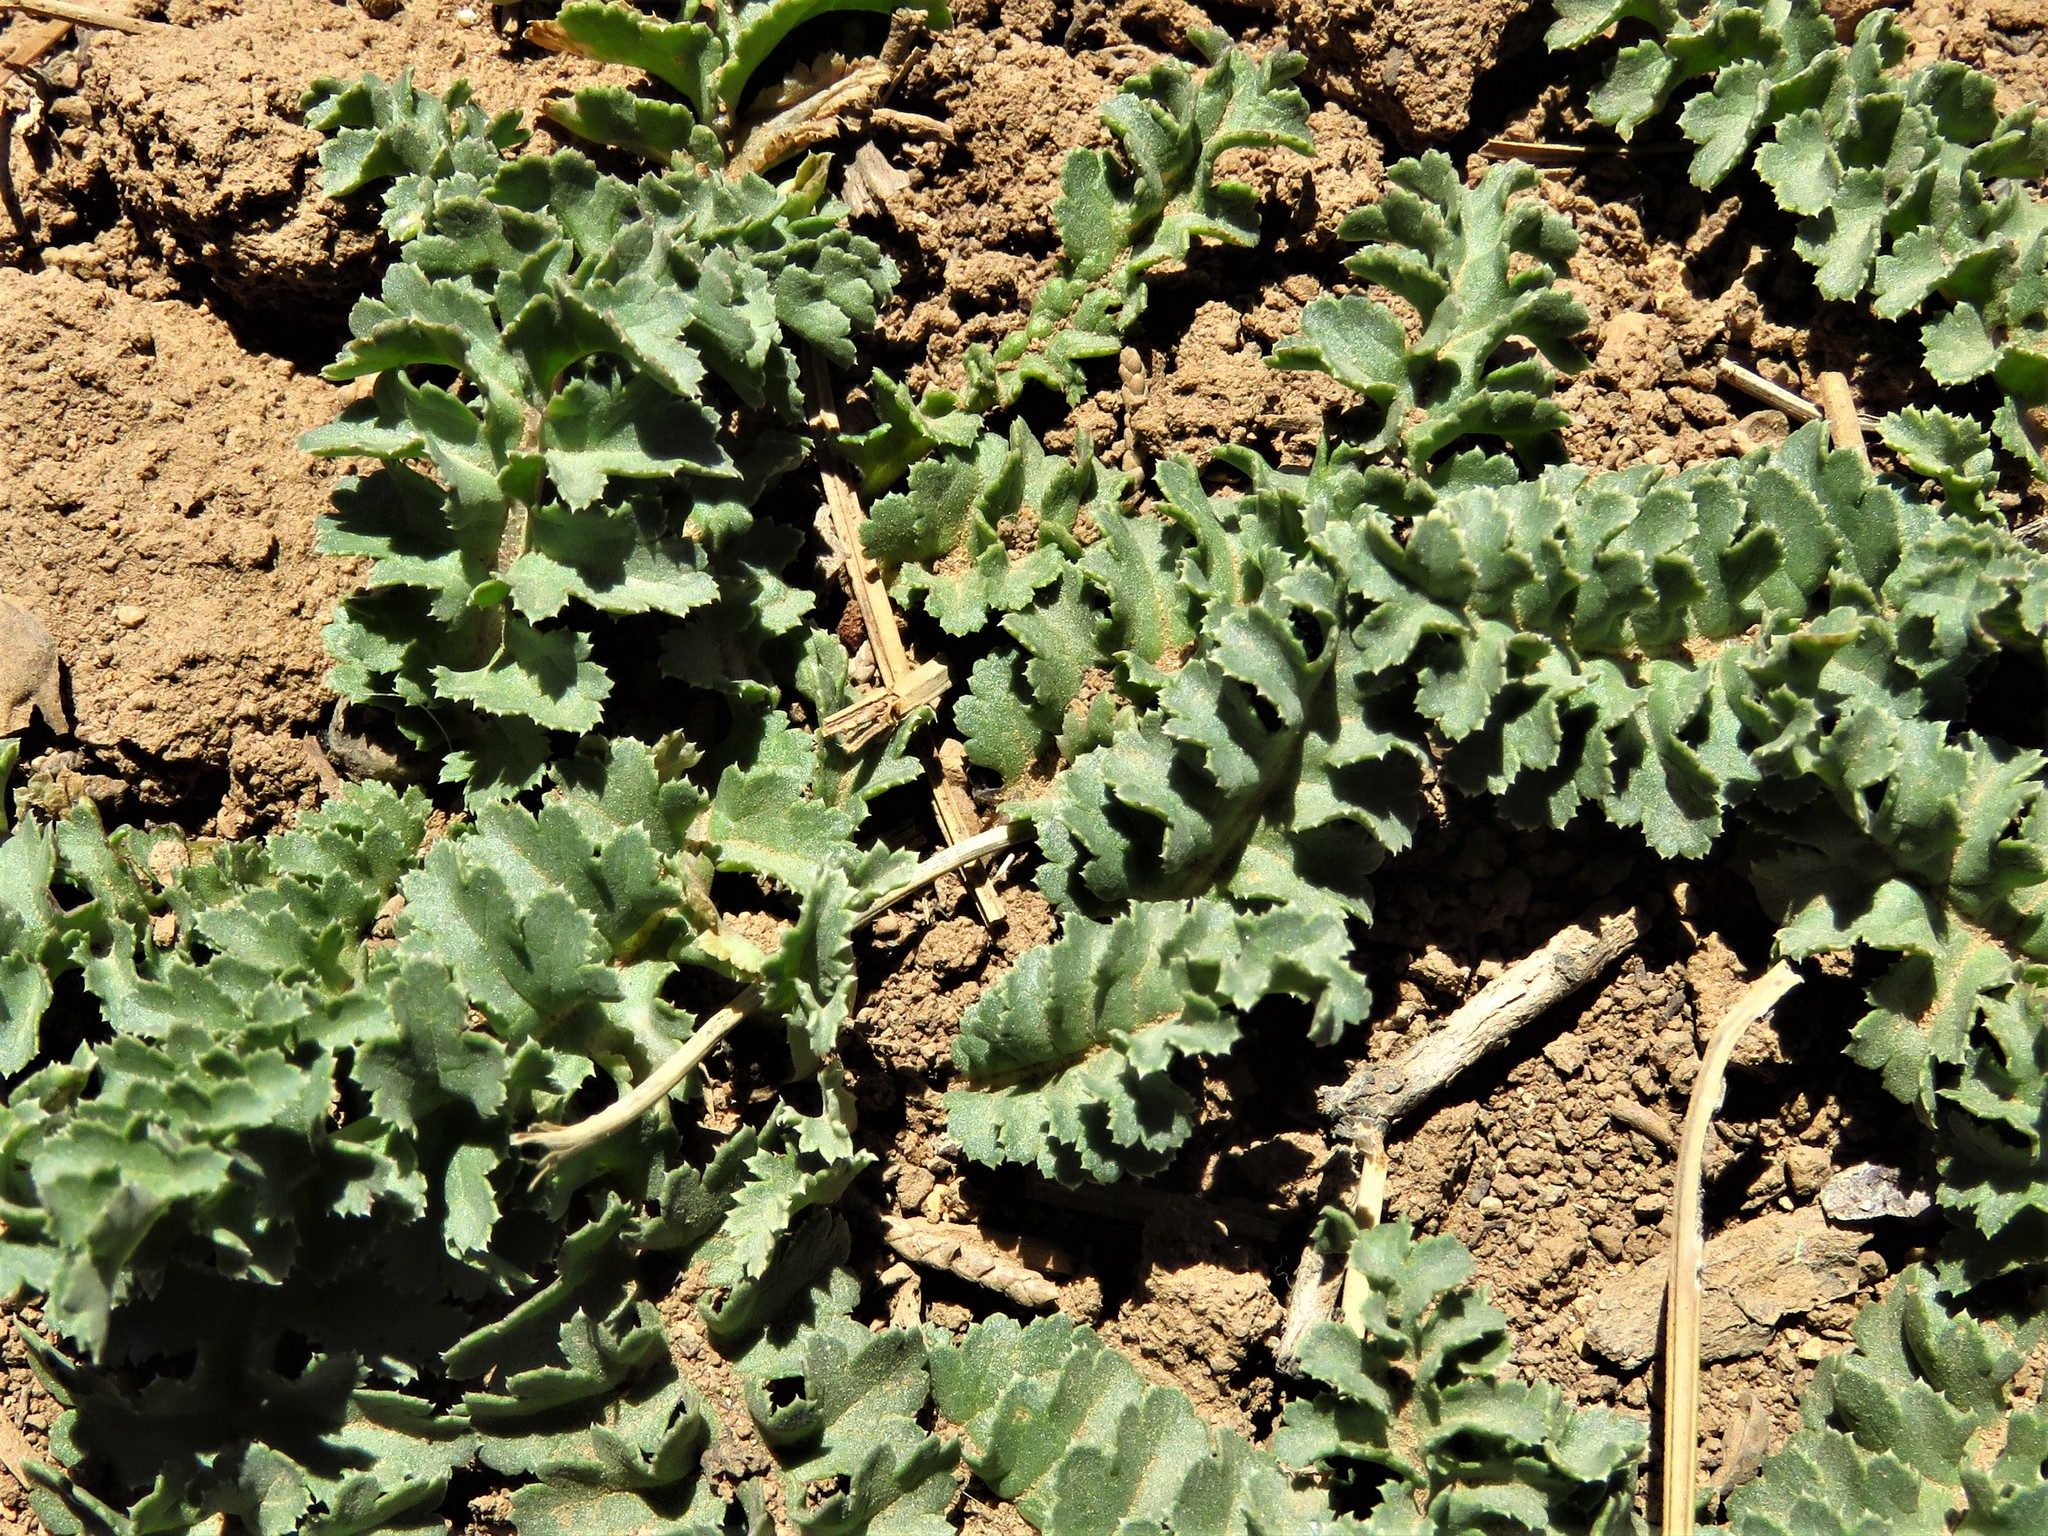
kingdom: Plantae
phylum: Tracheophyta
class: Magnoliopsida
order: Lamiales
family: Orobanchaceae
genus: Pedicularis
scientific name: Pedicularis centranthera
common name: Dwarf lousewort
